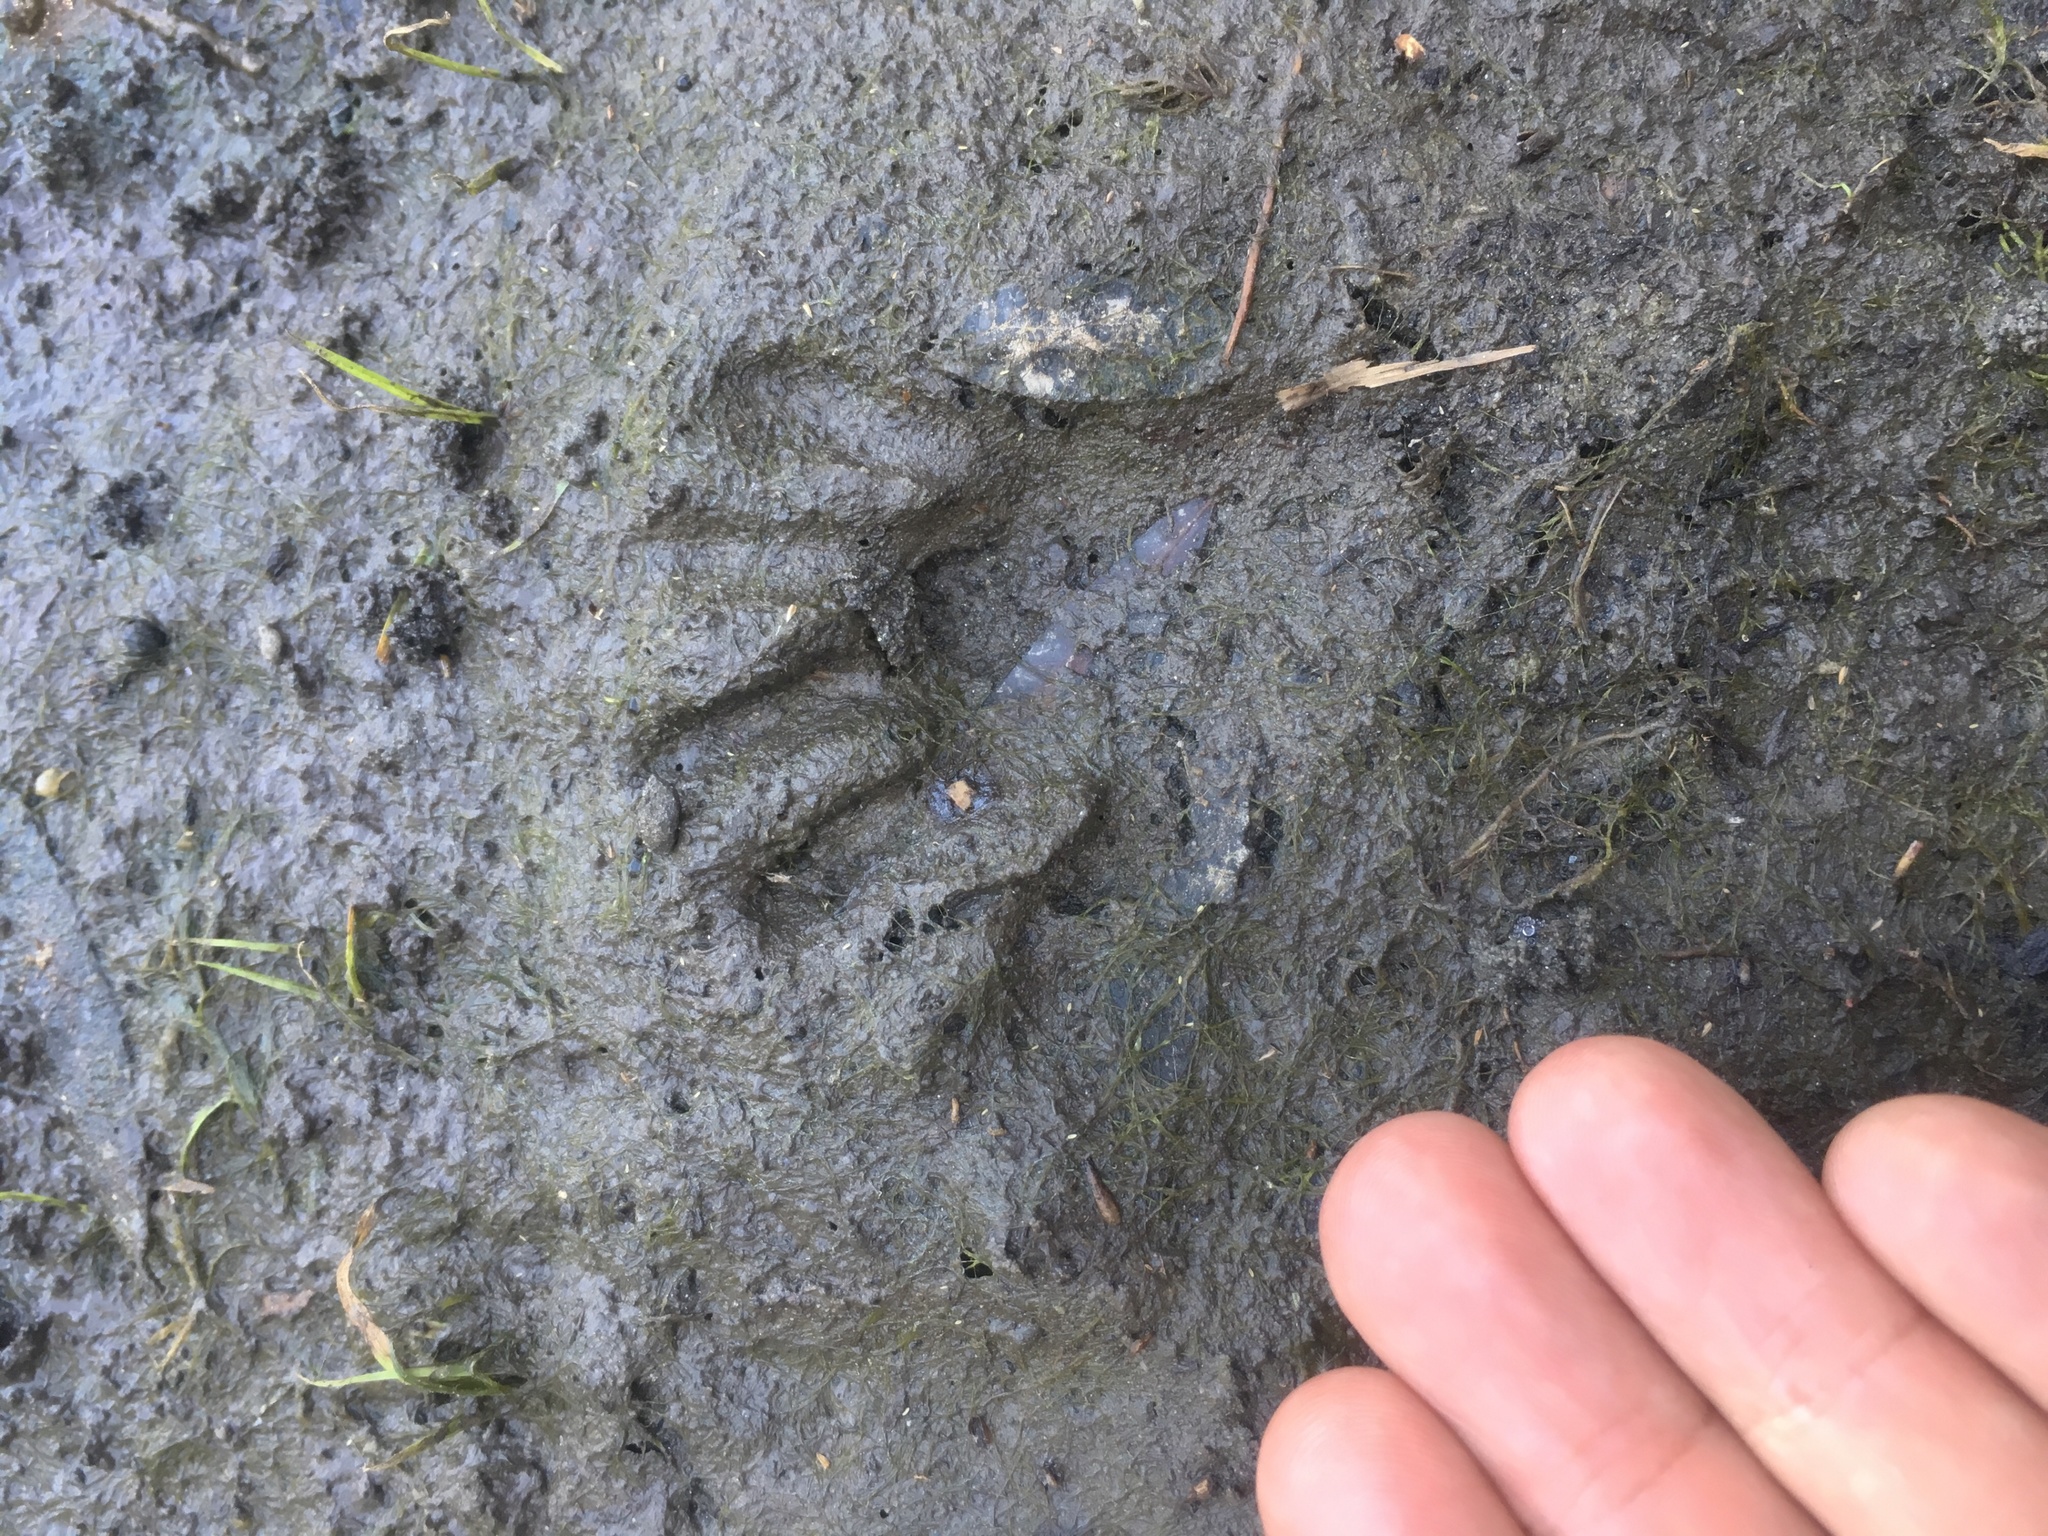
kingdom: Animalia
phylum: Chordata
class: Mammalia
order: Carnivora
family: Procyonidae
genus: Procyon
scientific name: Procyon lotor
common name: Raccoon
